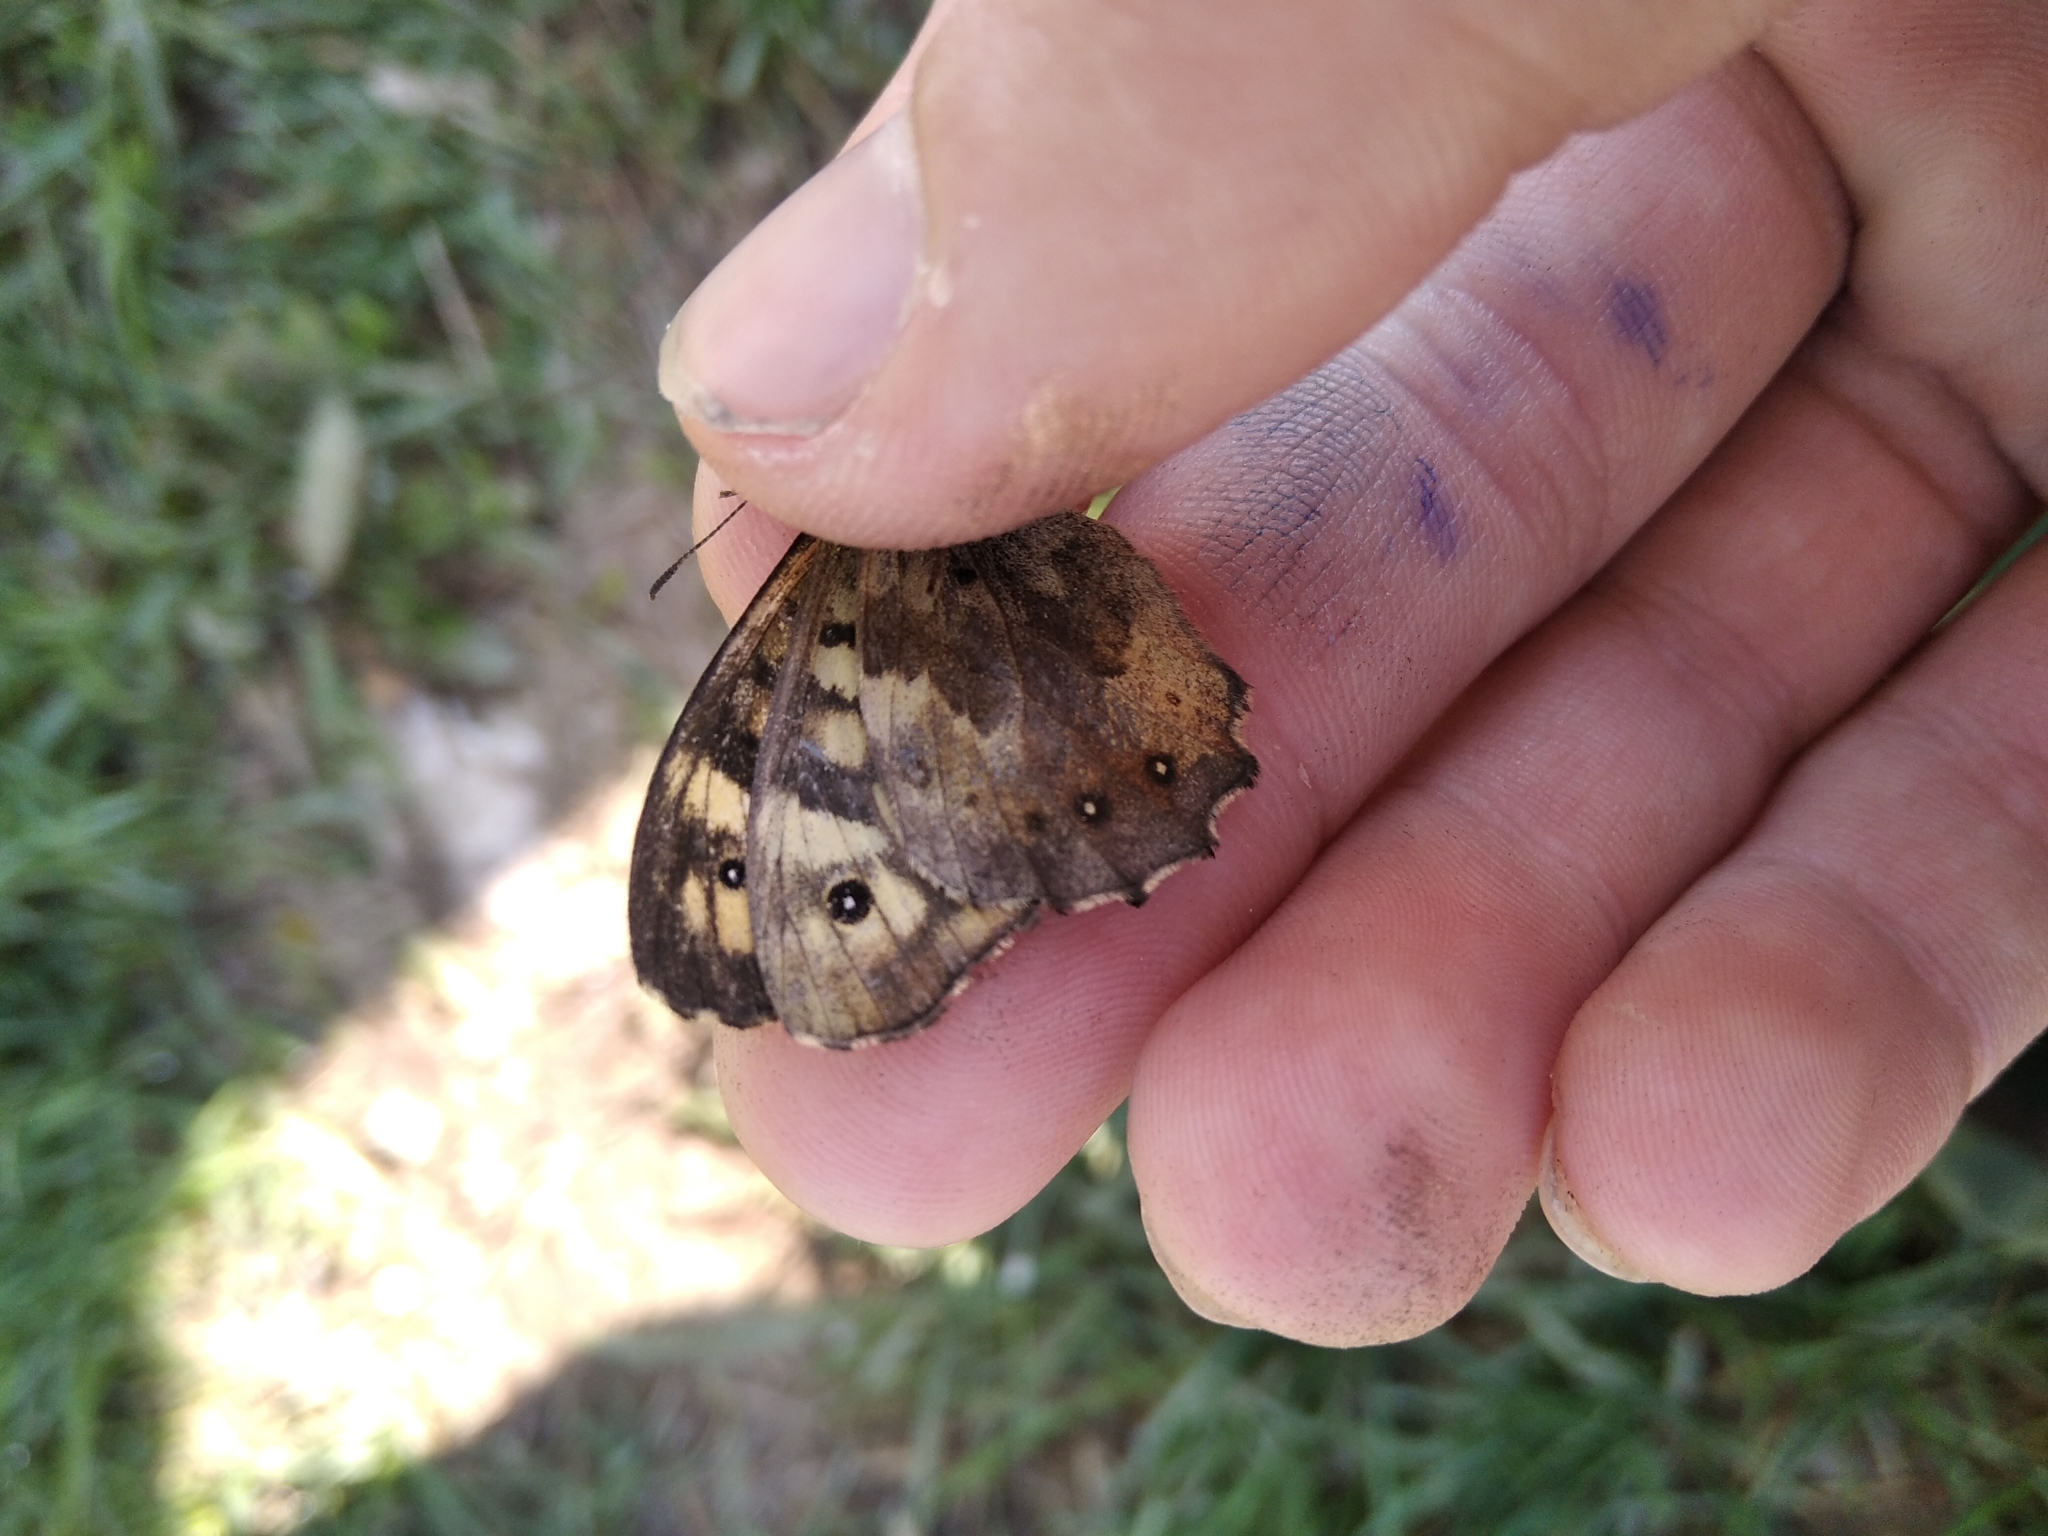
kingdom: Animalia
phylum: Arthropoda
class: Insecta
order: Lepidoptera
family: Nymphalidae
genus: Pararge
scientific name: Pararge aegeria
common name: Speckled wood
